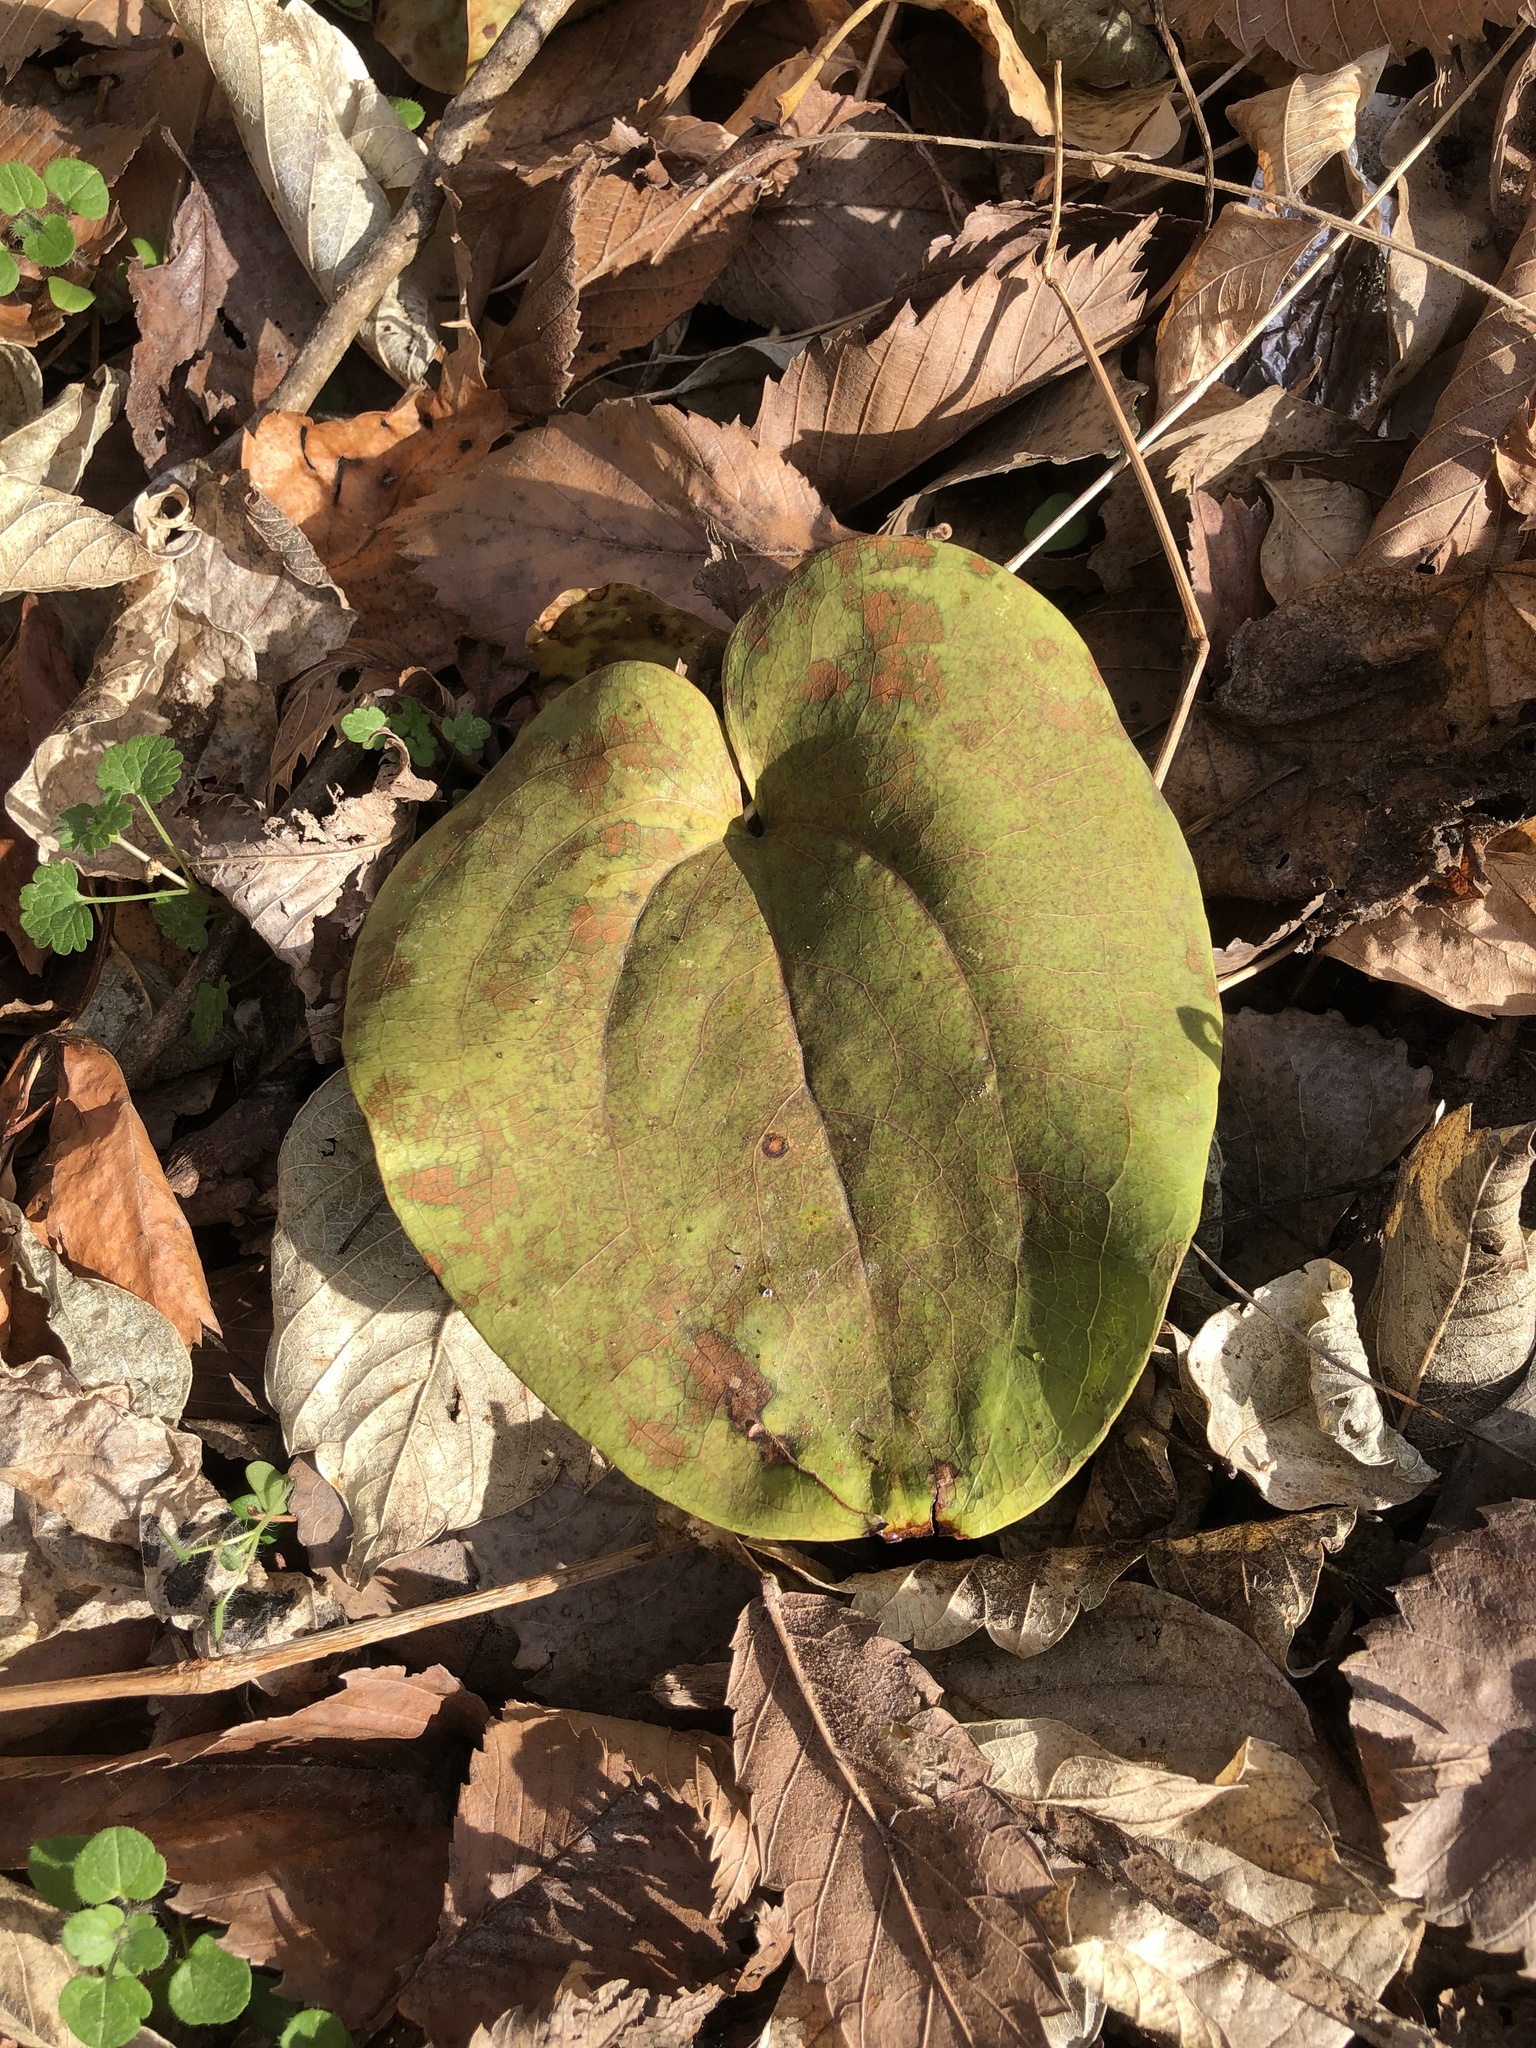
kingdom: Plantae
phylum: Tracheophyta
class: Liliopsida
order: Liliales
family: Smilacaceae
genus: Smilax
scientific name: Smilax tamnoides
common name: Hellfetter
